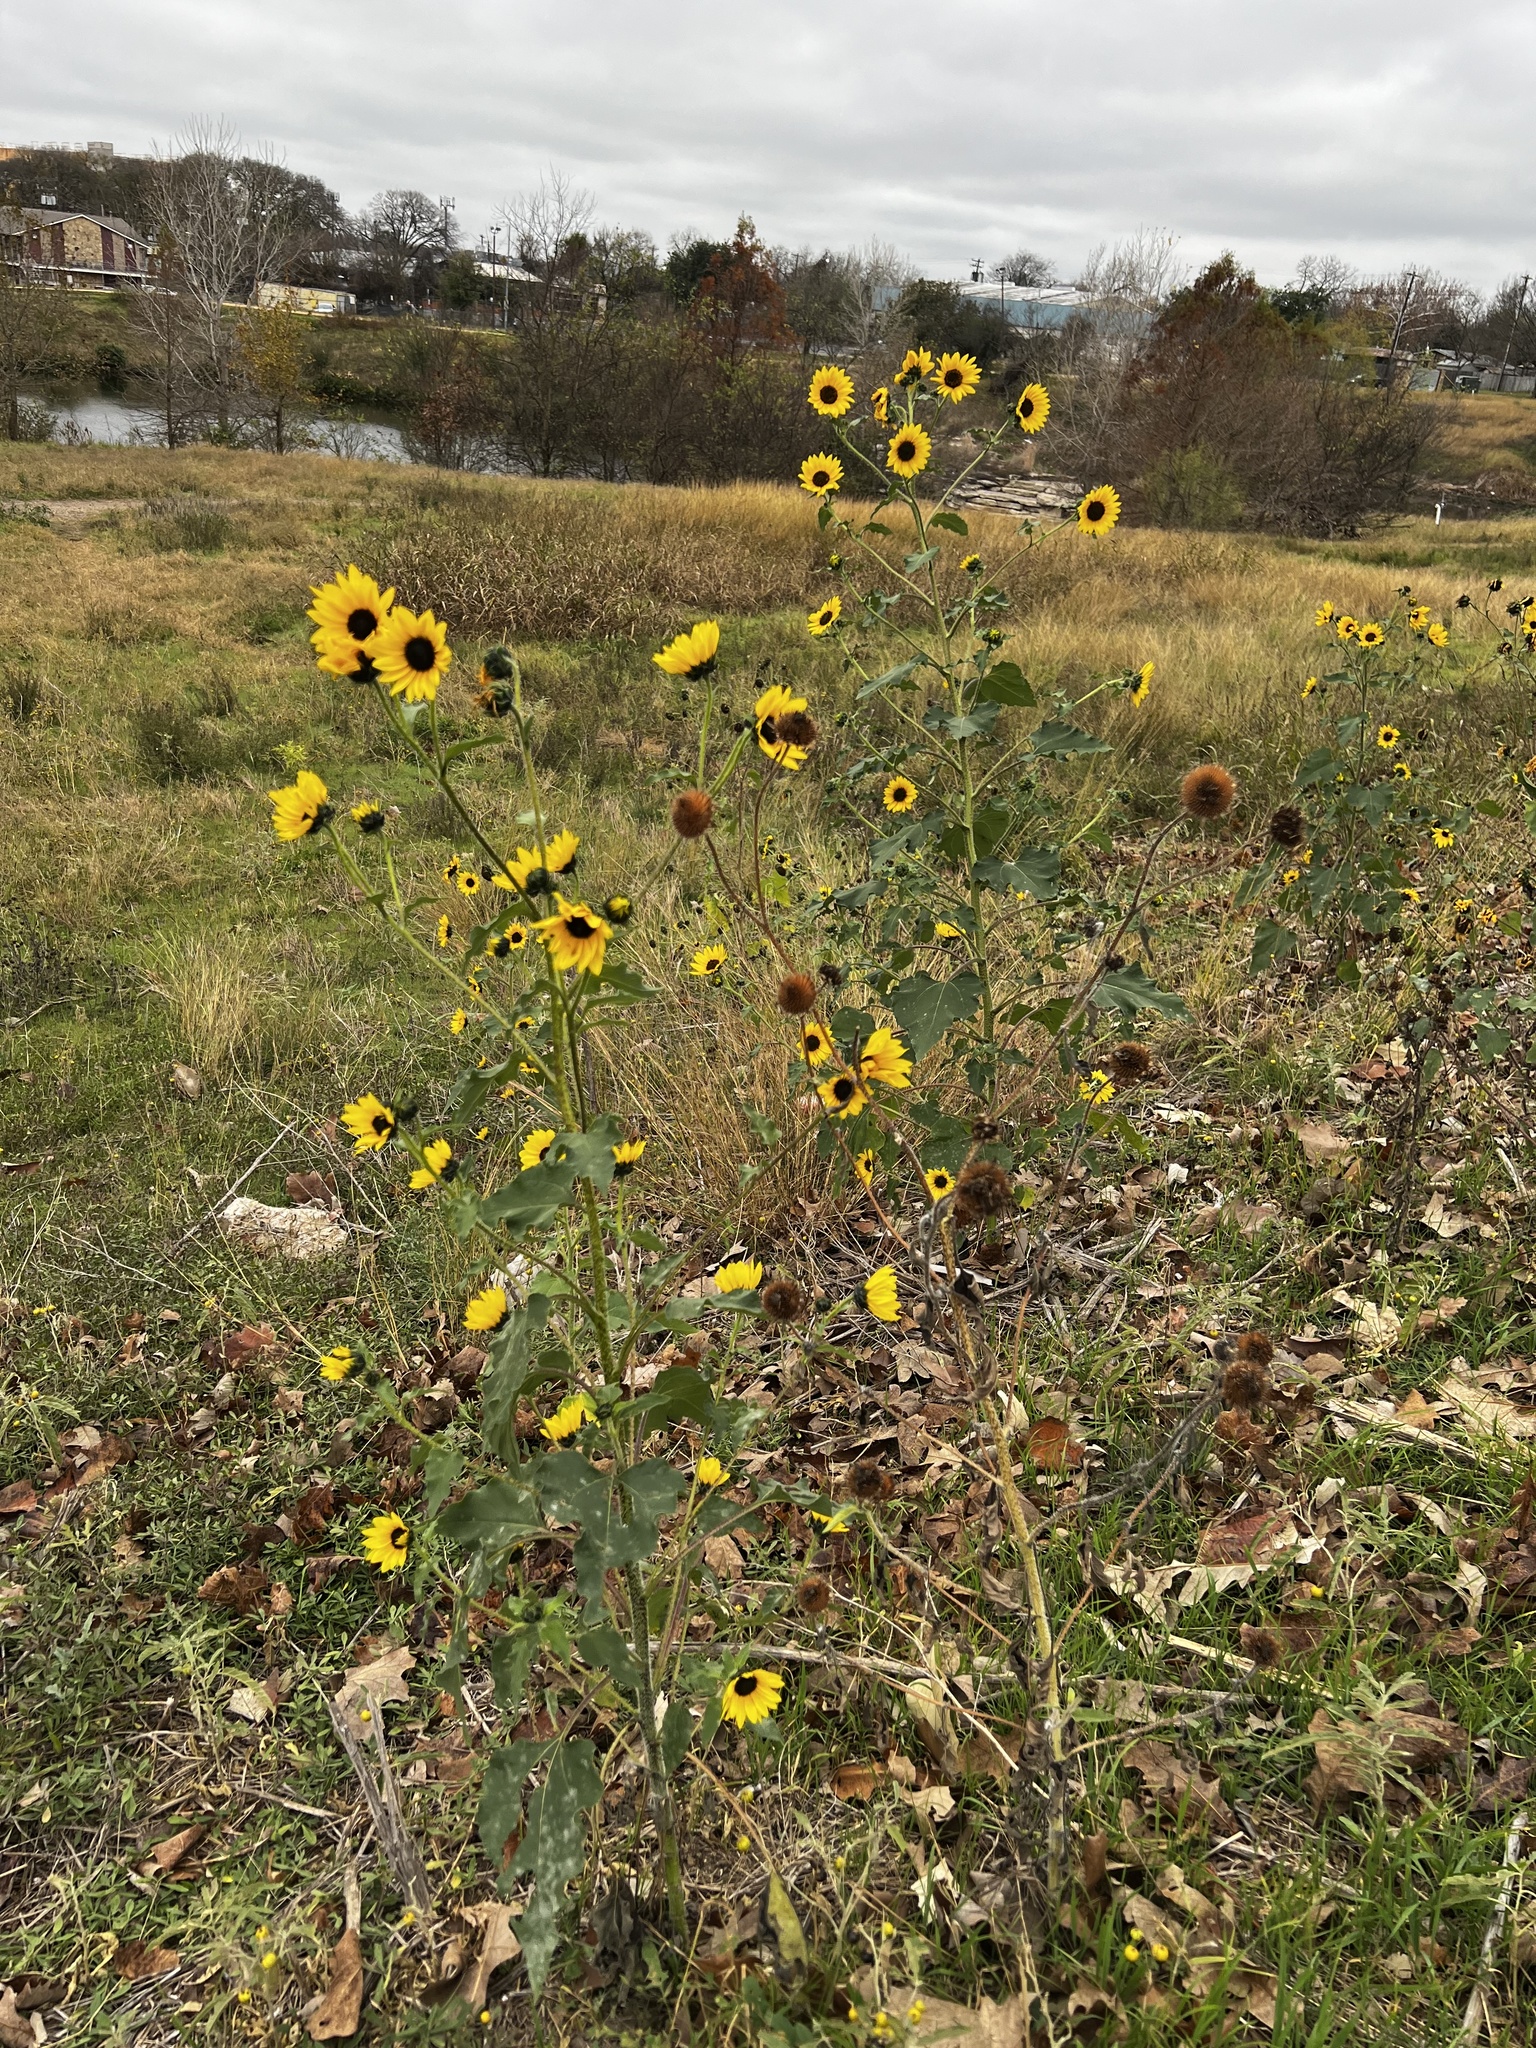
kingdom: Plantae
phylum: Tracheophyta
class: Magnoliopsida
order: Asterales
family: Asteraceae
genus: Helianthus
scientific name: Helianthus annuus
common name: Sunflower
